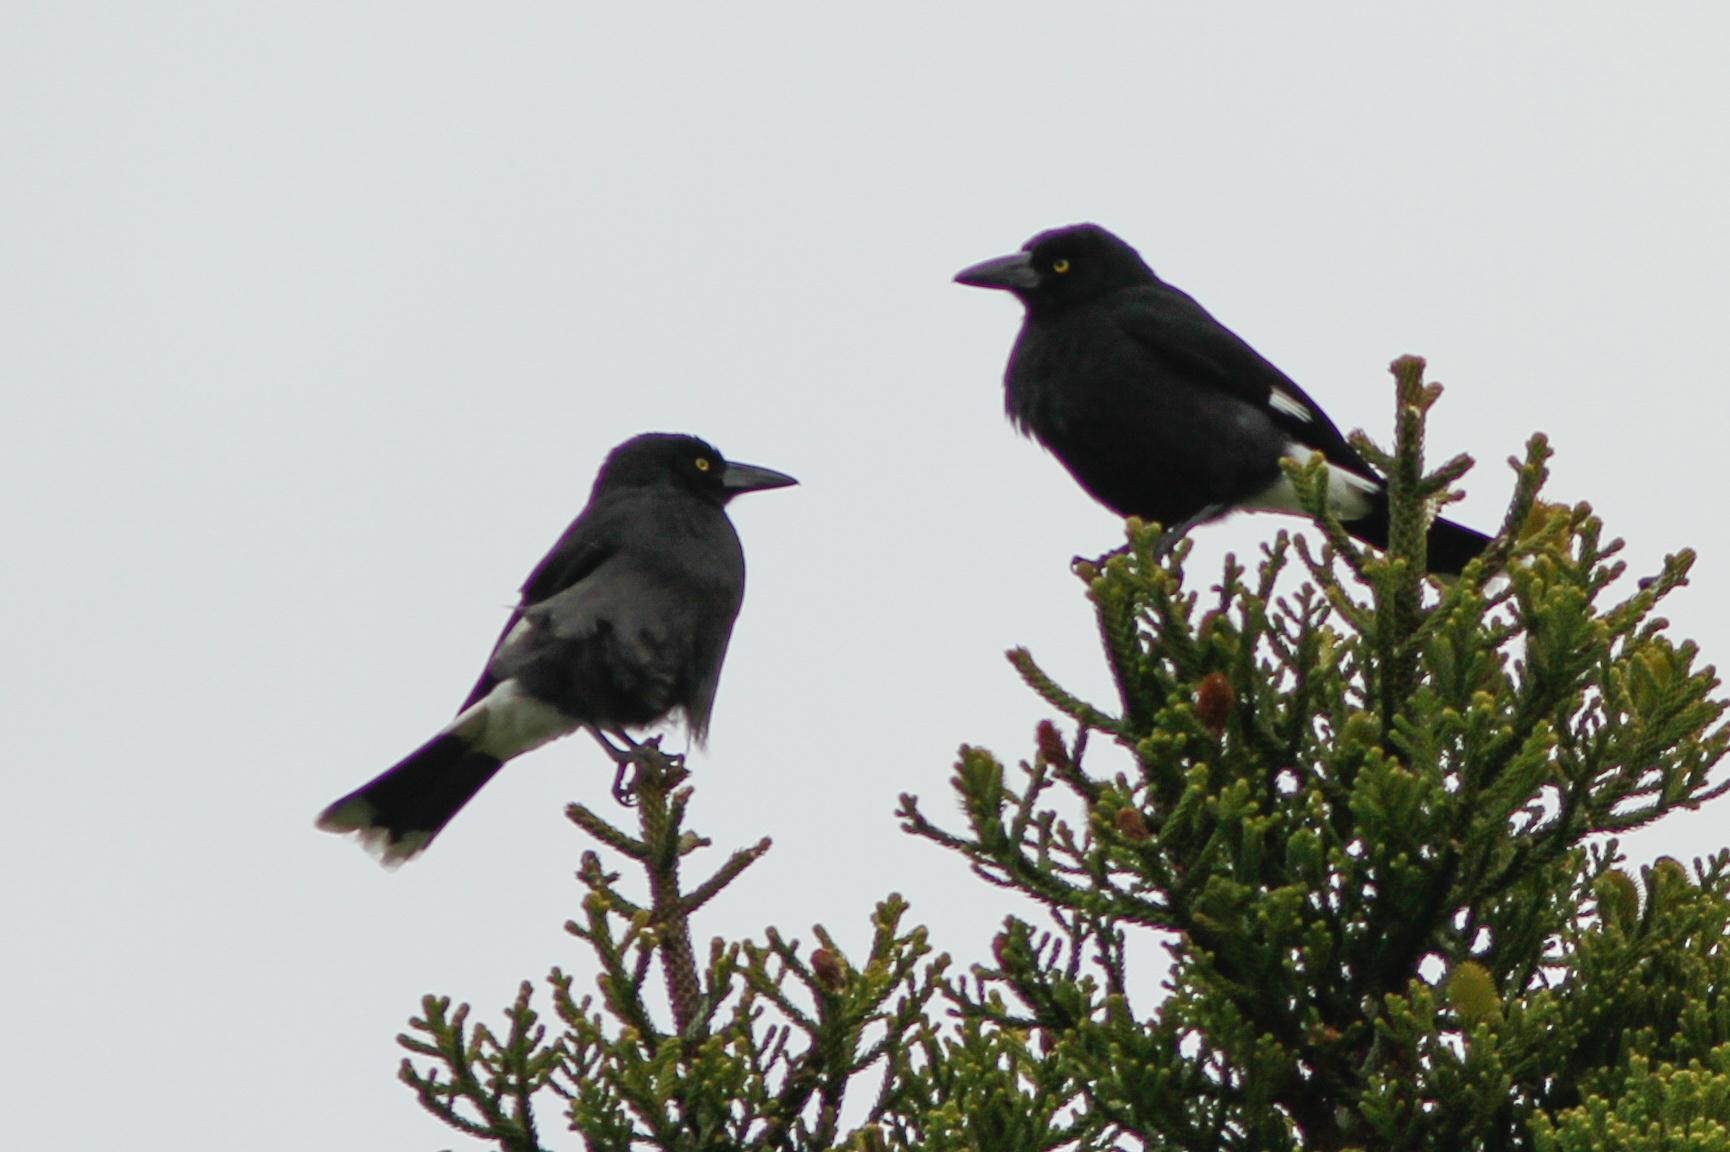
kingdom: Animalia
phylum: Chordata
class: Aves
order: Passeriformes
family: Cracticidae
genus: Strepera
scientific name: Strepera graculina
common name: Pied currawong
